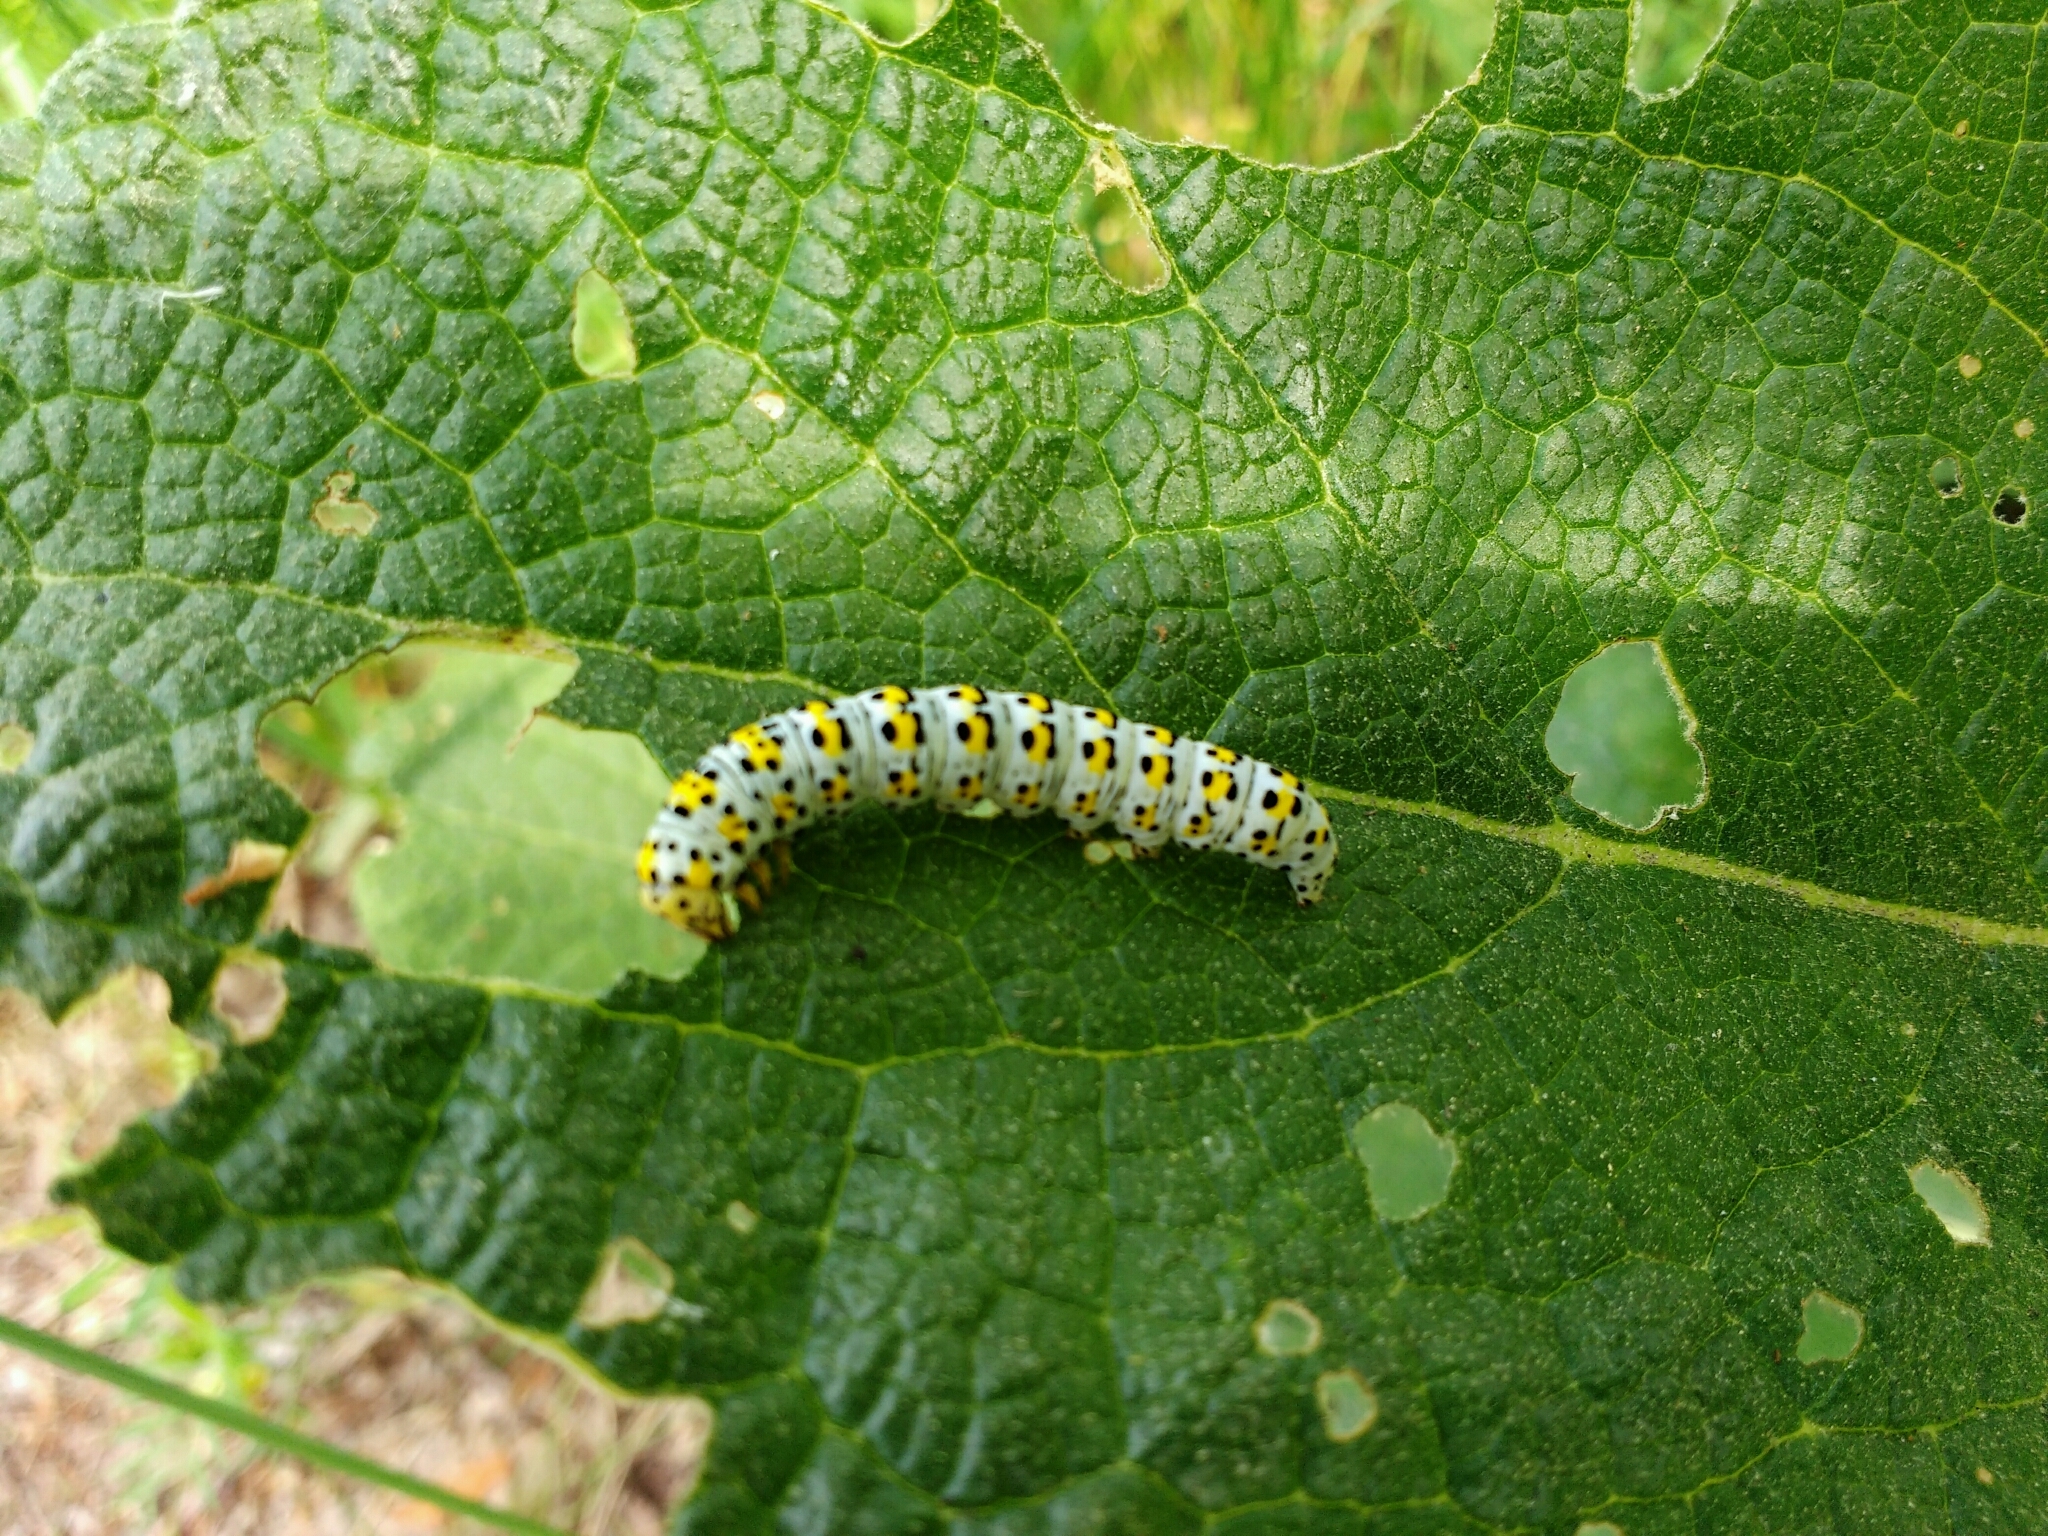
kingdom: Animalia
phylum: Arthropoda
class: Insecta
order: Lepidoptera
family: Noctuidae
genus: Cucullia
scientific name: Cucullia verbasci
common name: Mullein
